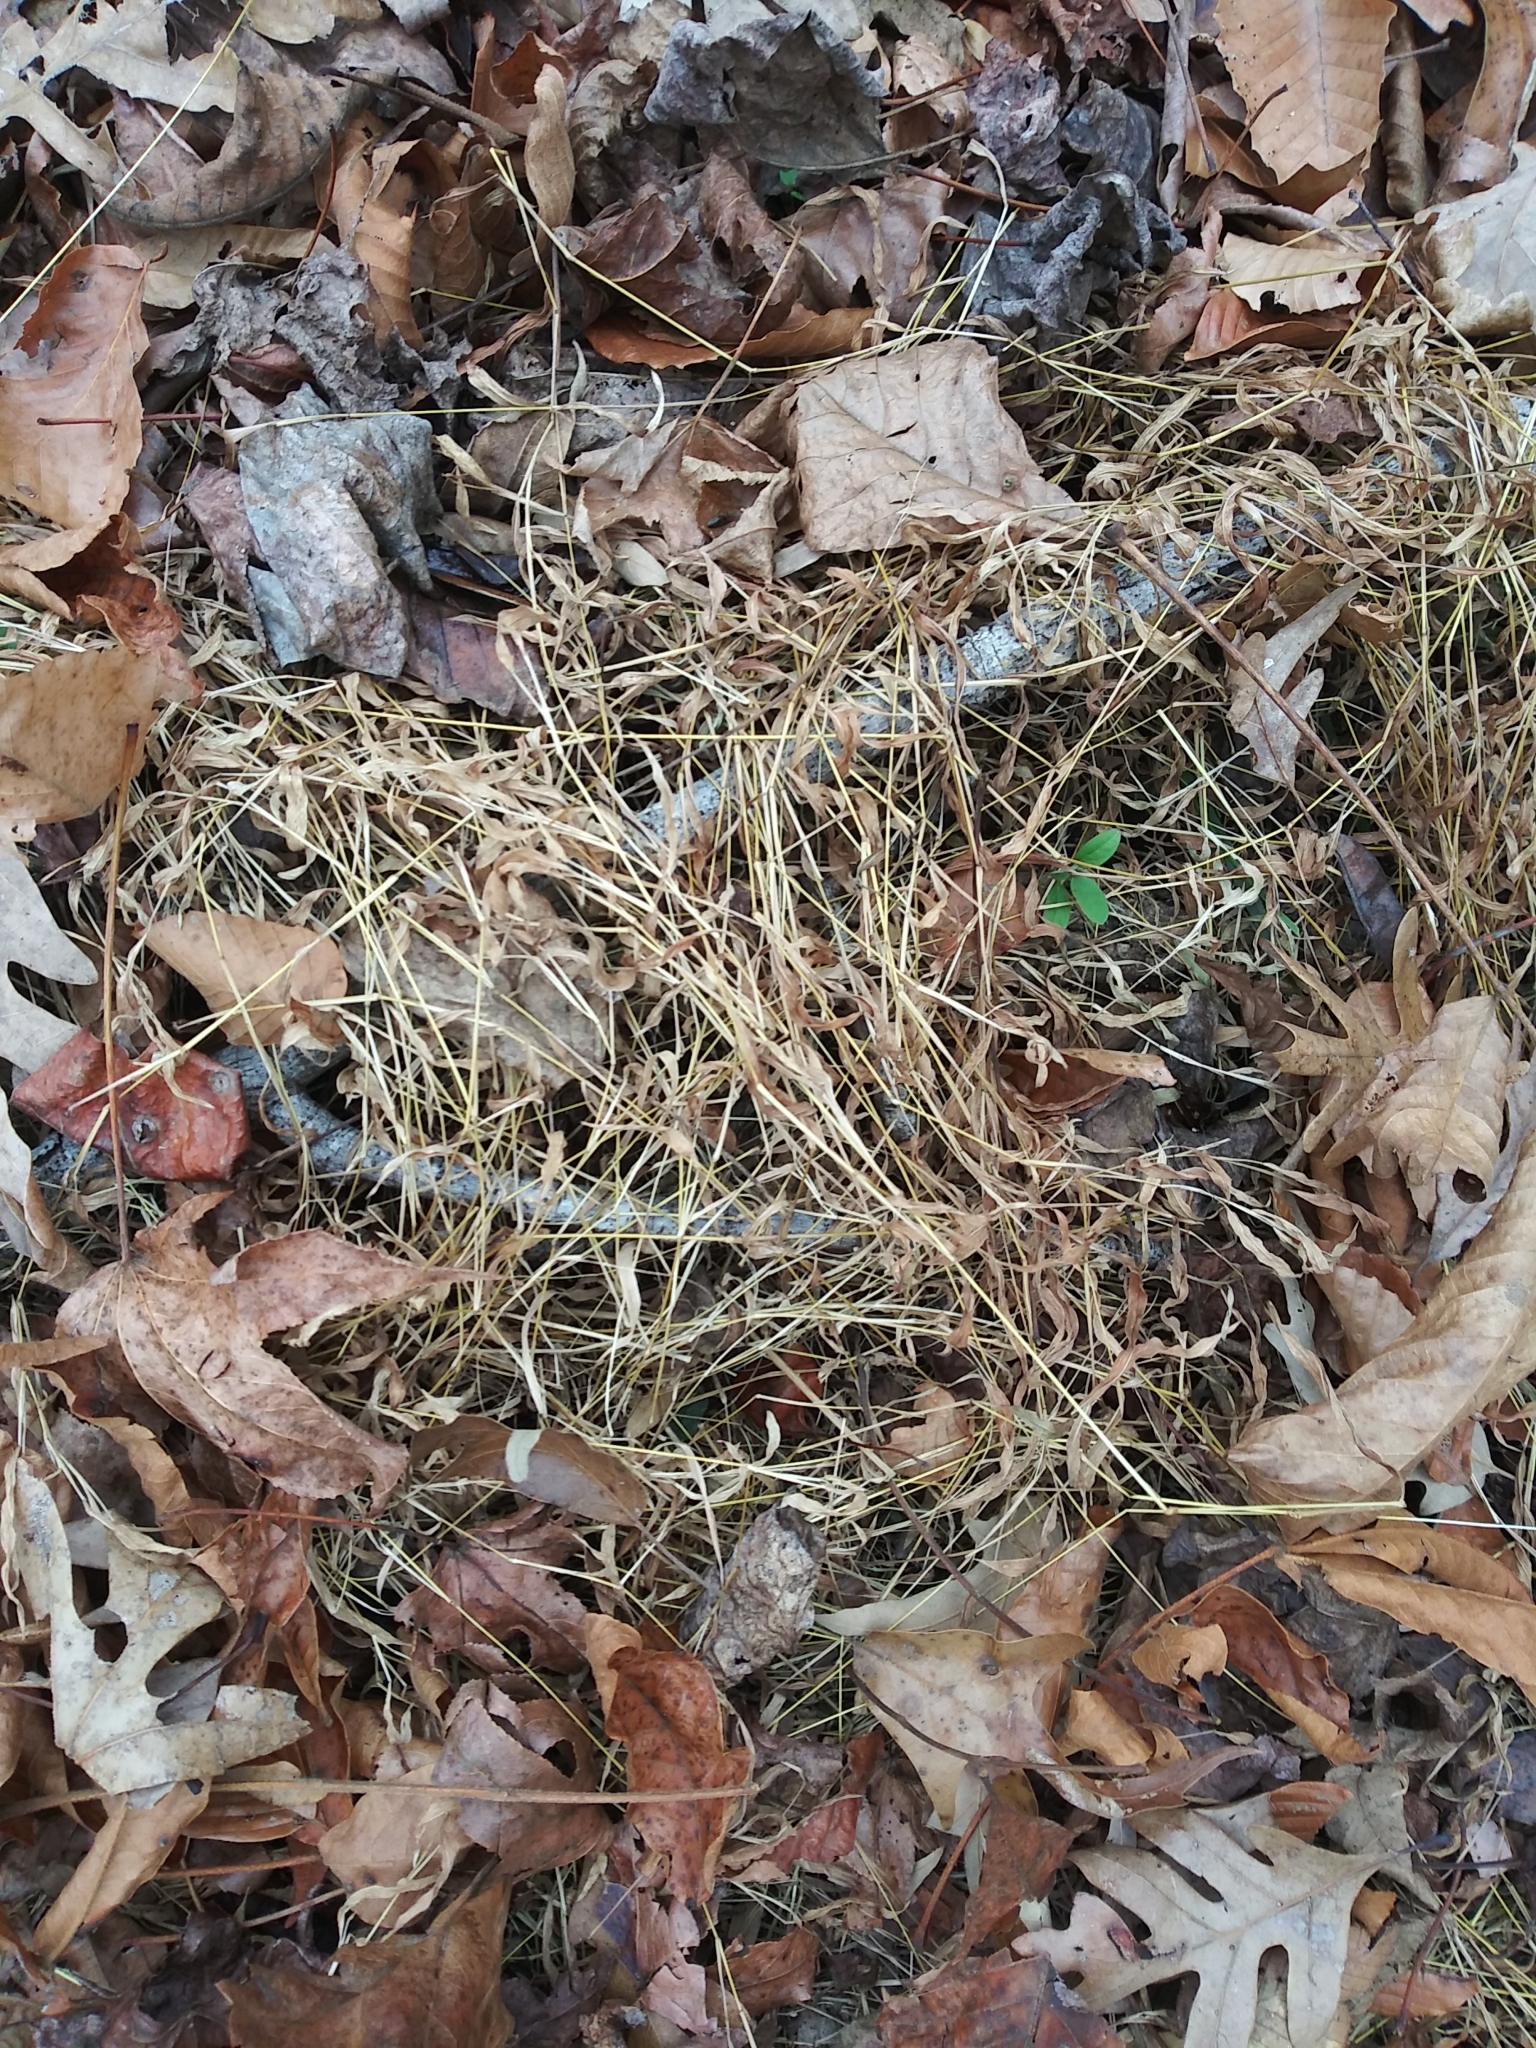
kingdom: Plantae
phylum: Tracheophyta
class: Liliopsida
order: Poales
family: Poaceae
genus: Microstegium
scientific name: Microstegium vimineum
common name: Japanese stiltgrass
